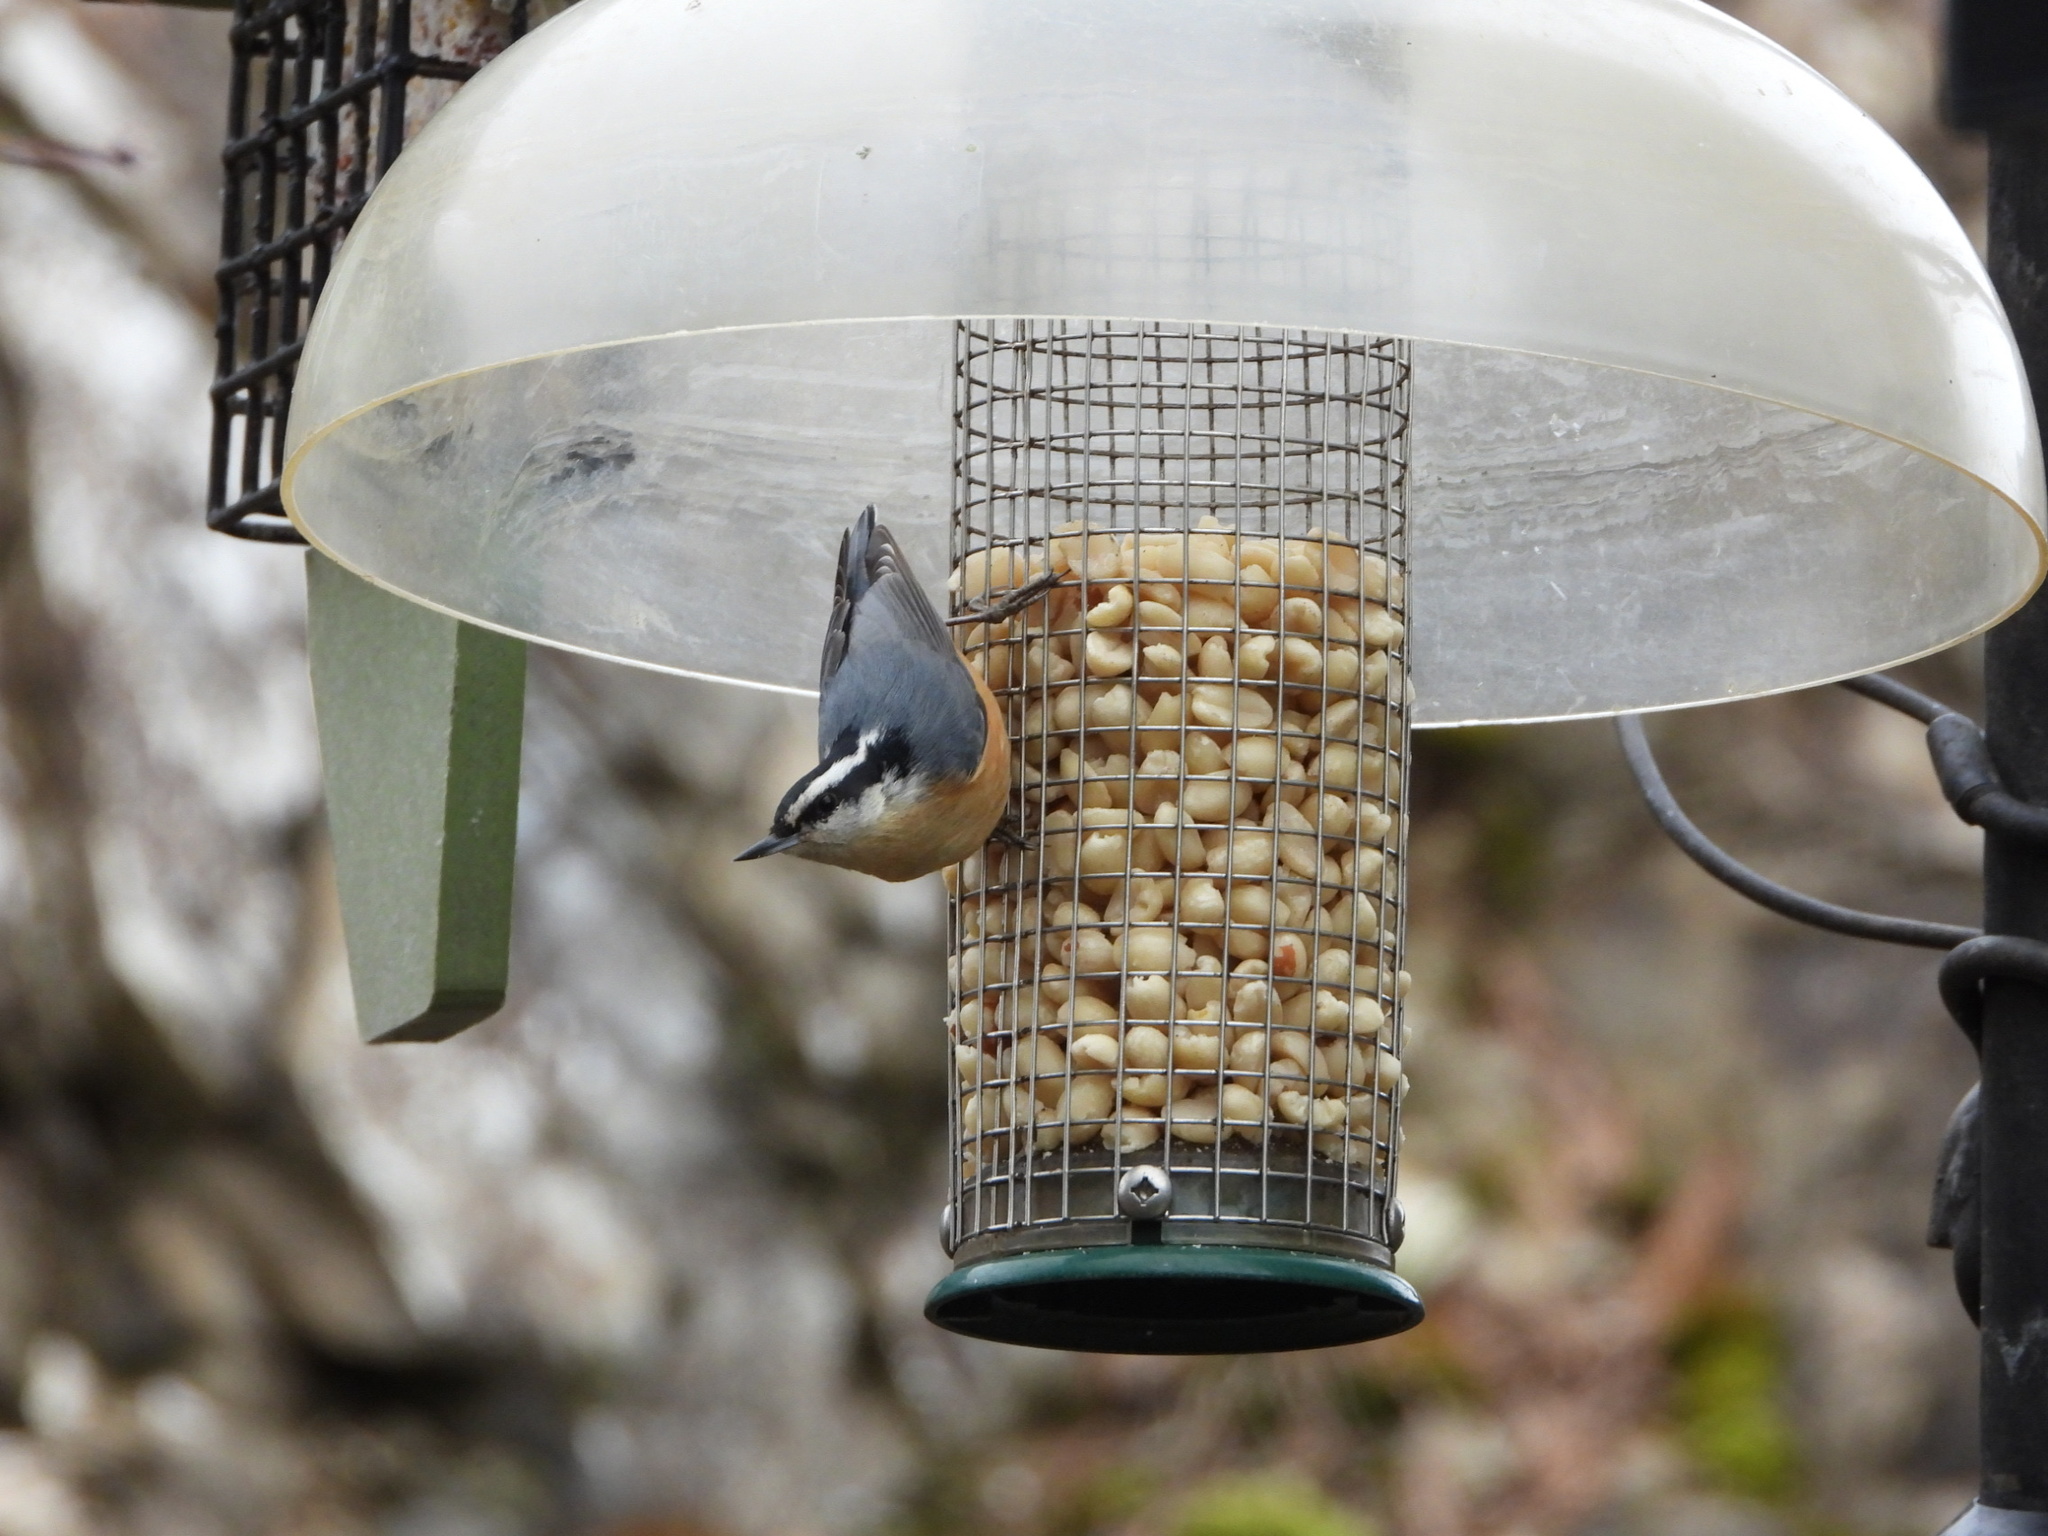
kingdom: Animalia
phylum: Chordata
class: Aves
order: Passeriformes
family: Sittidae
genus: Sitta
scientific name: Sitta canadensis
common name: Red-breasted nuthatch
